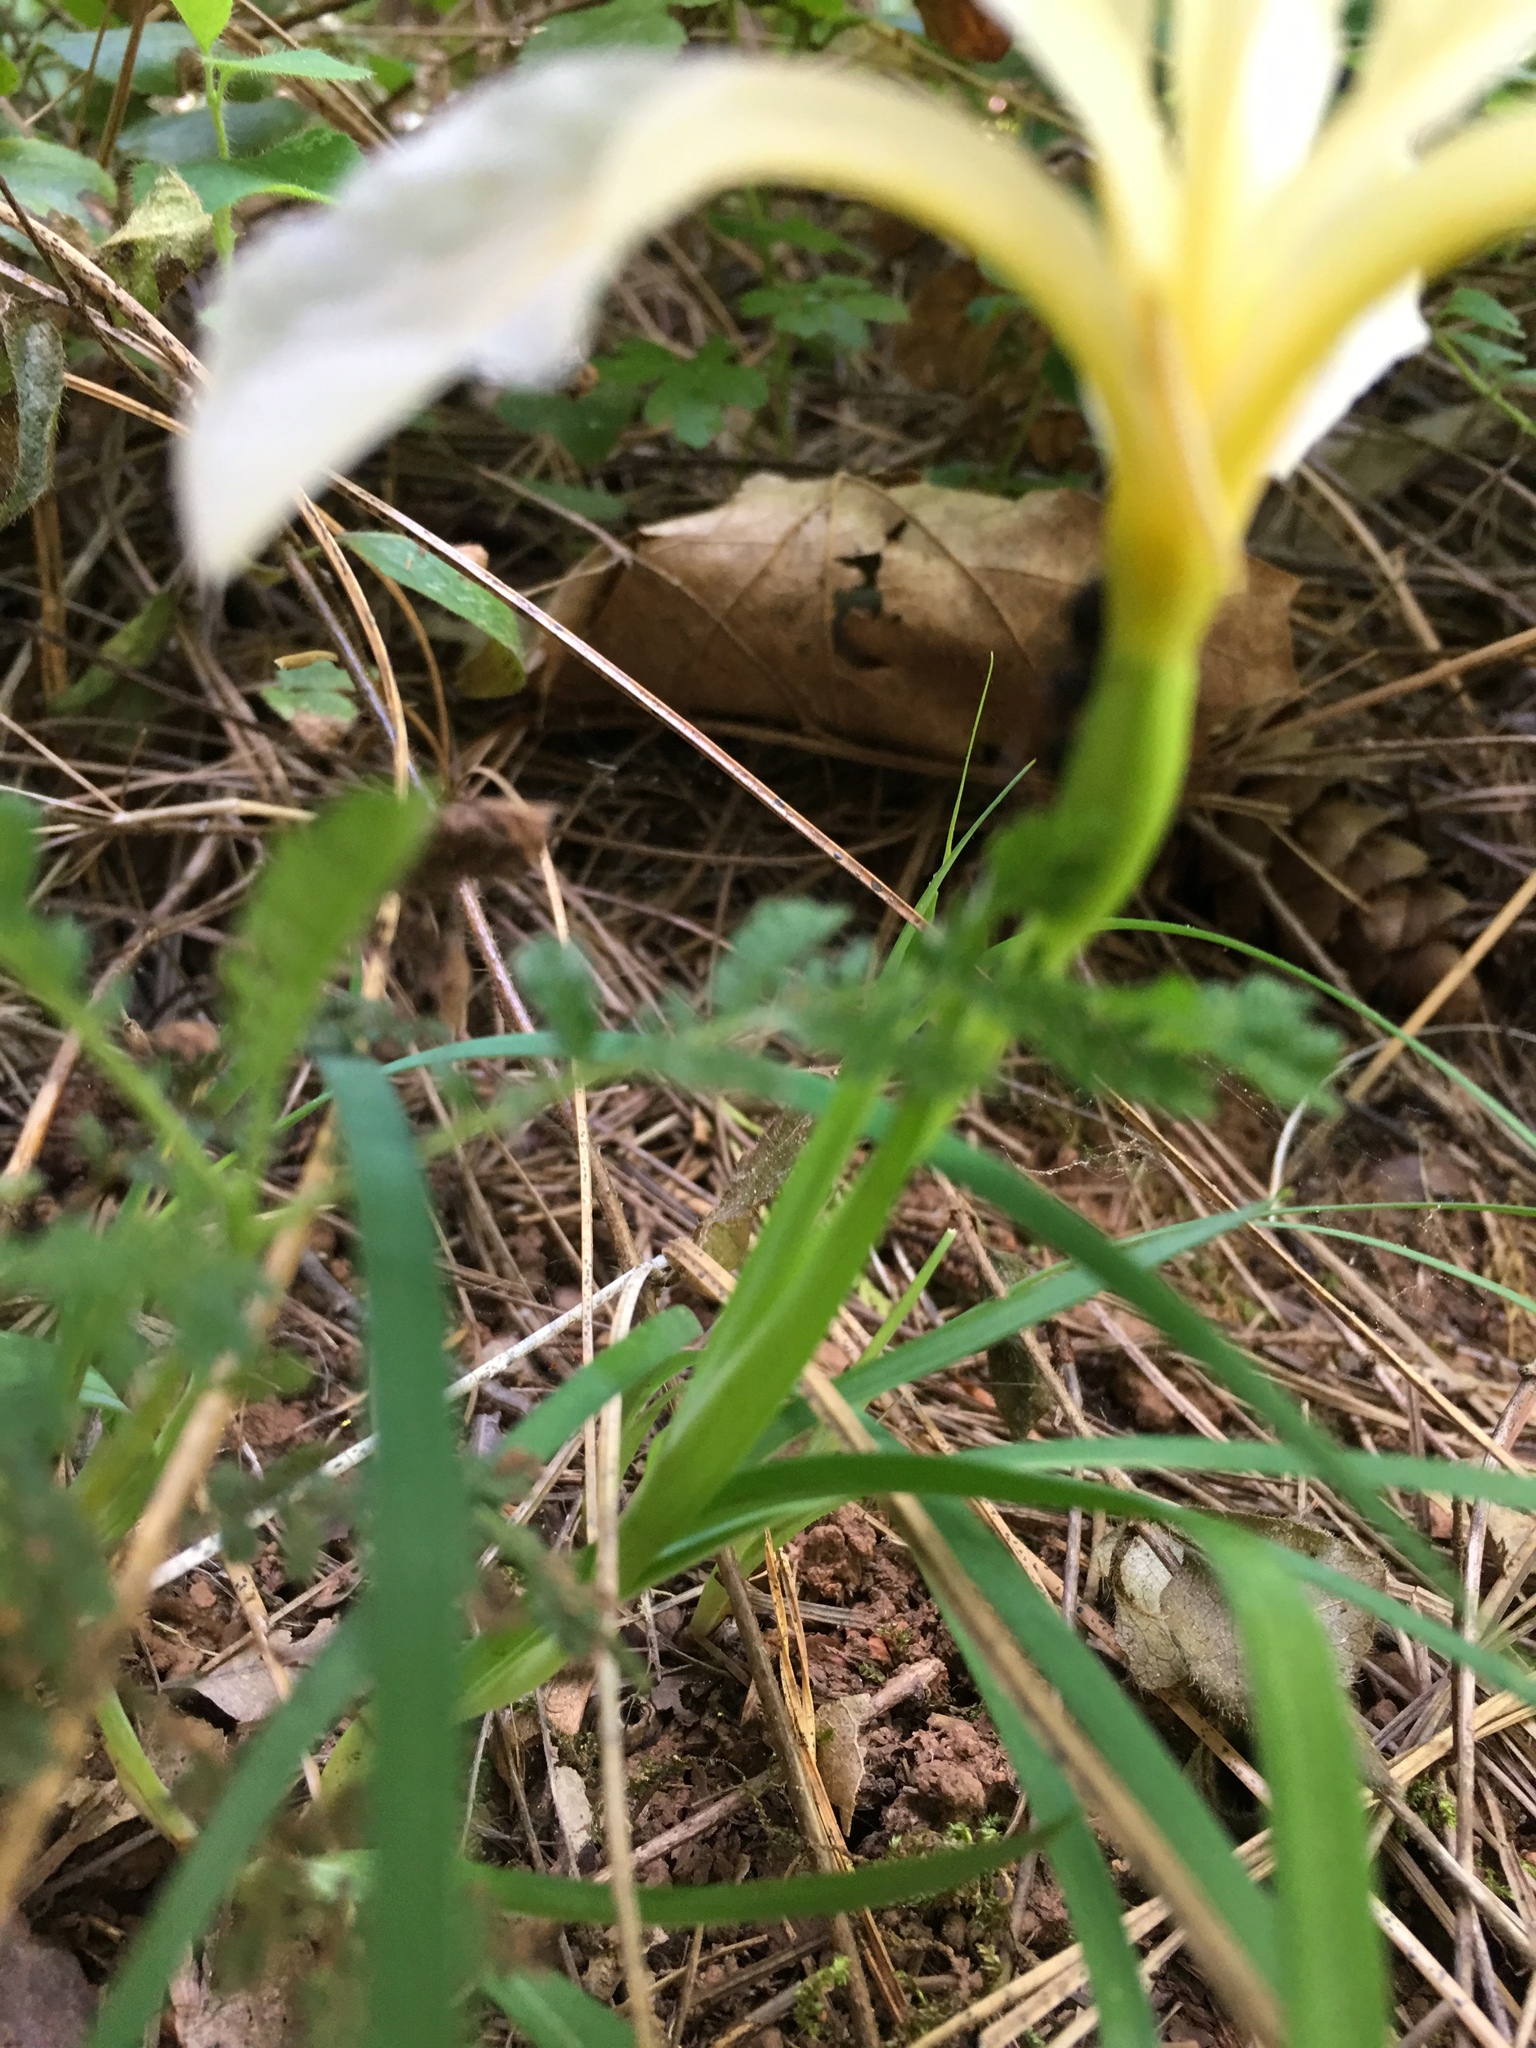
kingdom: Plantae
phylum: Tracheophyta
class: Liliopsida
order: Asparagales
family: Iridaceae
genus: Iris
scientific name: Iris hartwegii
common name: Sierra iris
